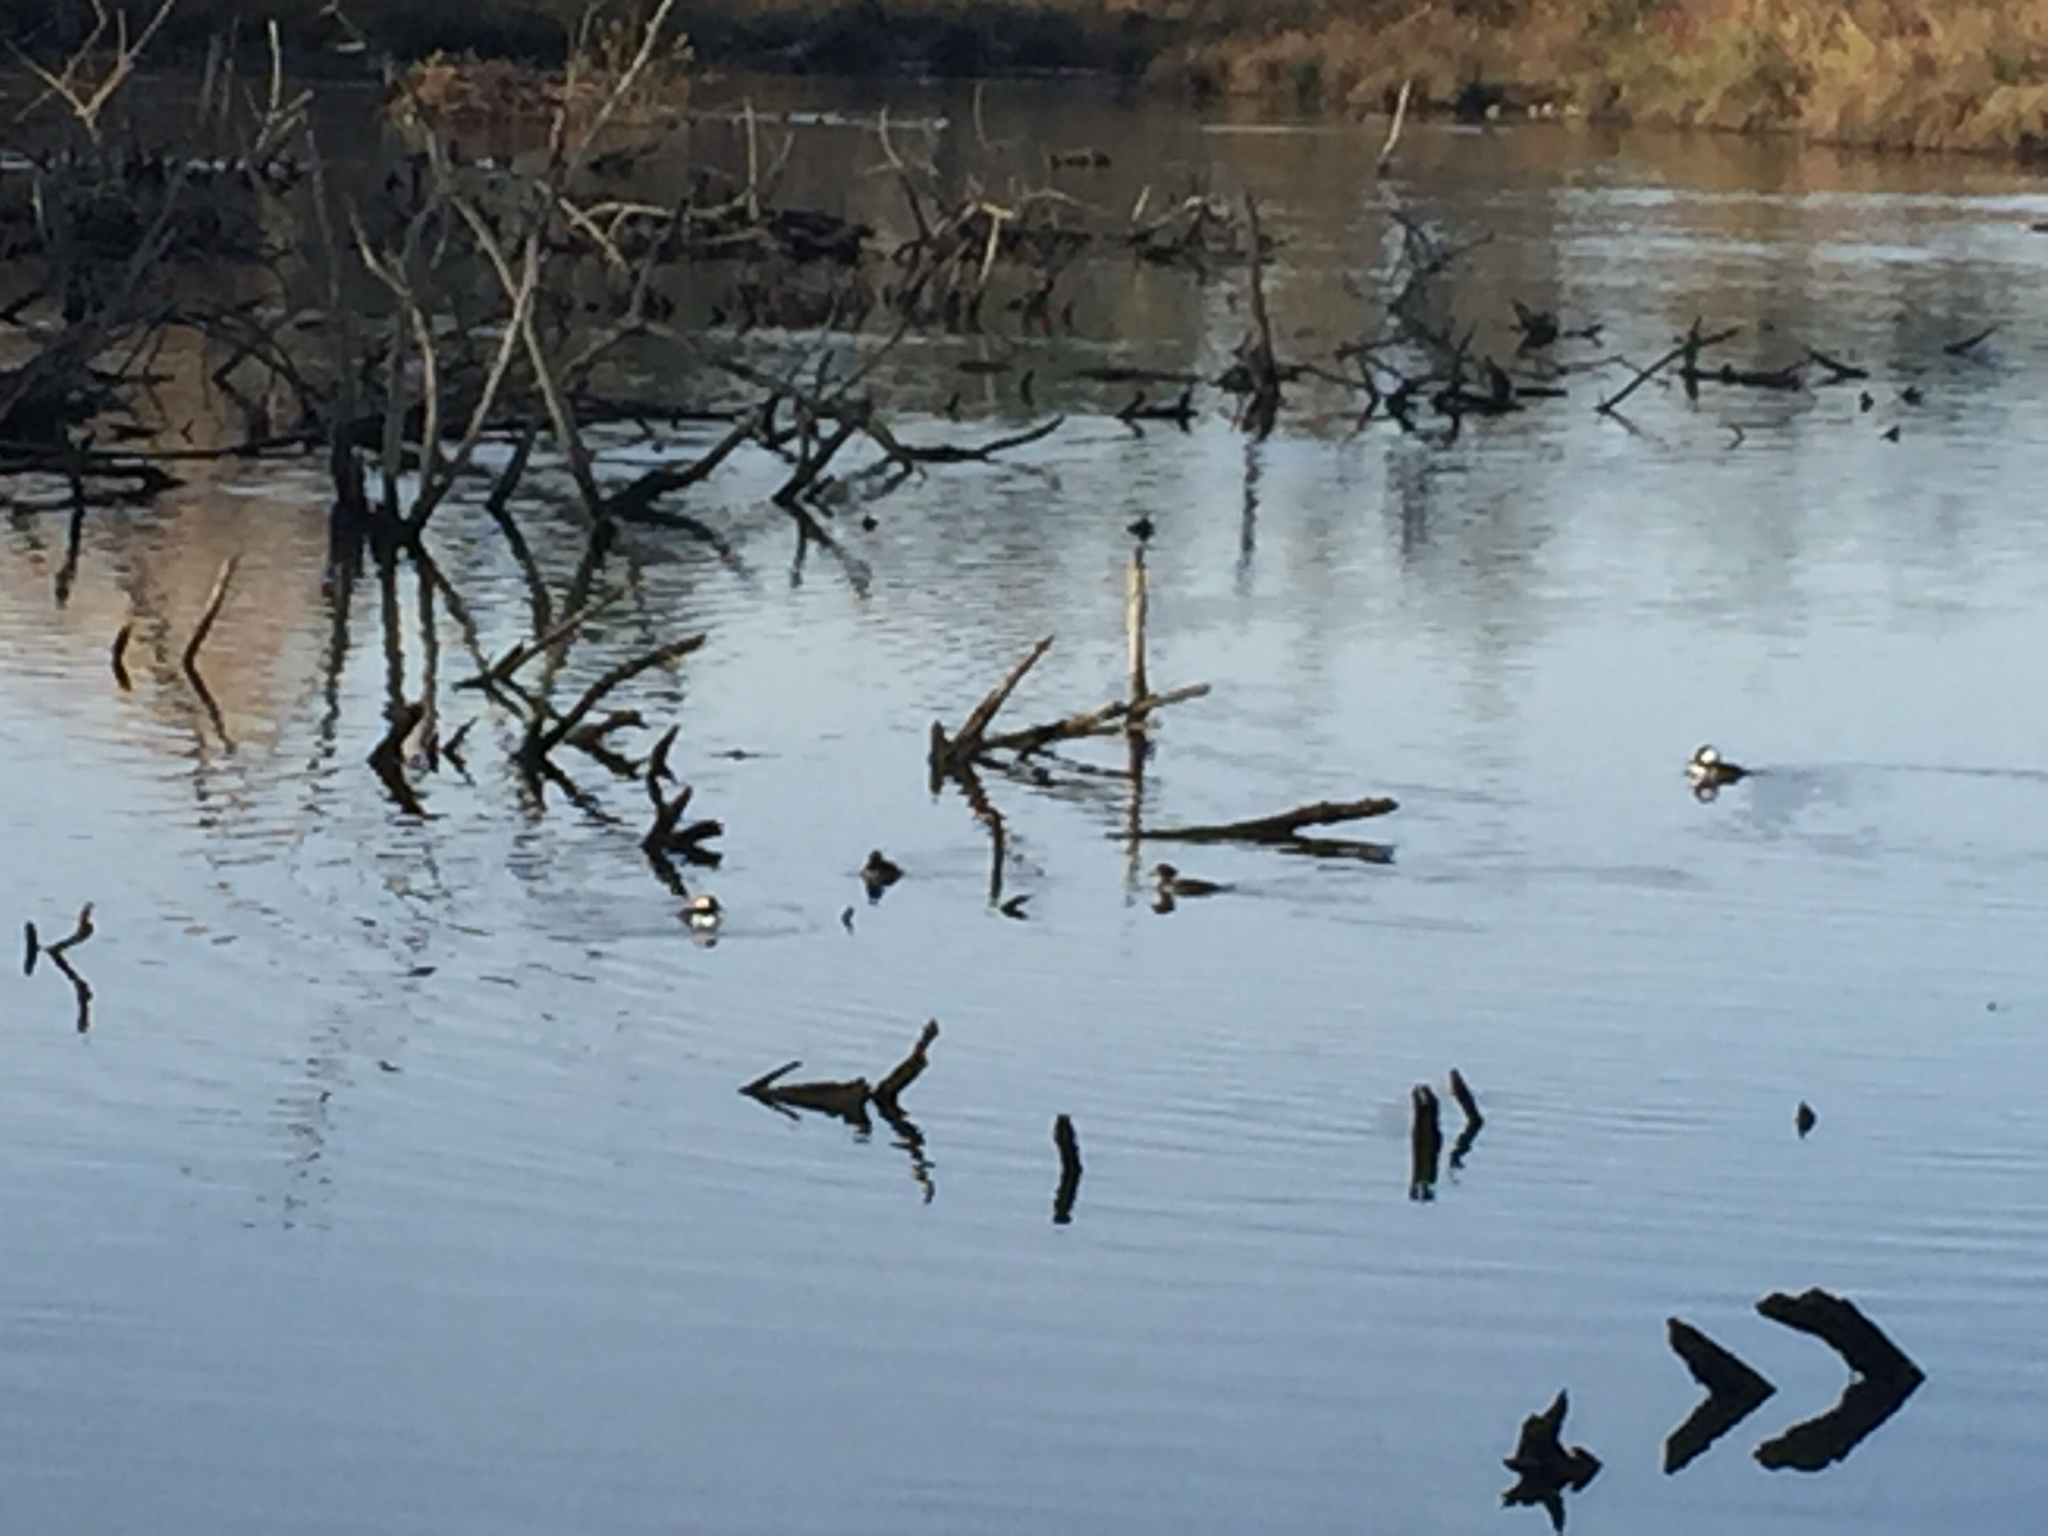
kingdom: Animalia
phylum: Chordata
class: Aves
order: Anseriformes
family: Anatidae
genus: Lophodytes
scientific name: Lophodytes cucullatus
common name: Hooded merganser
